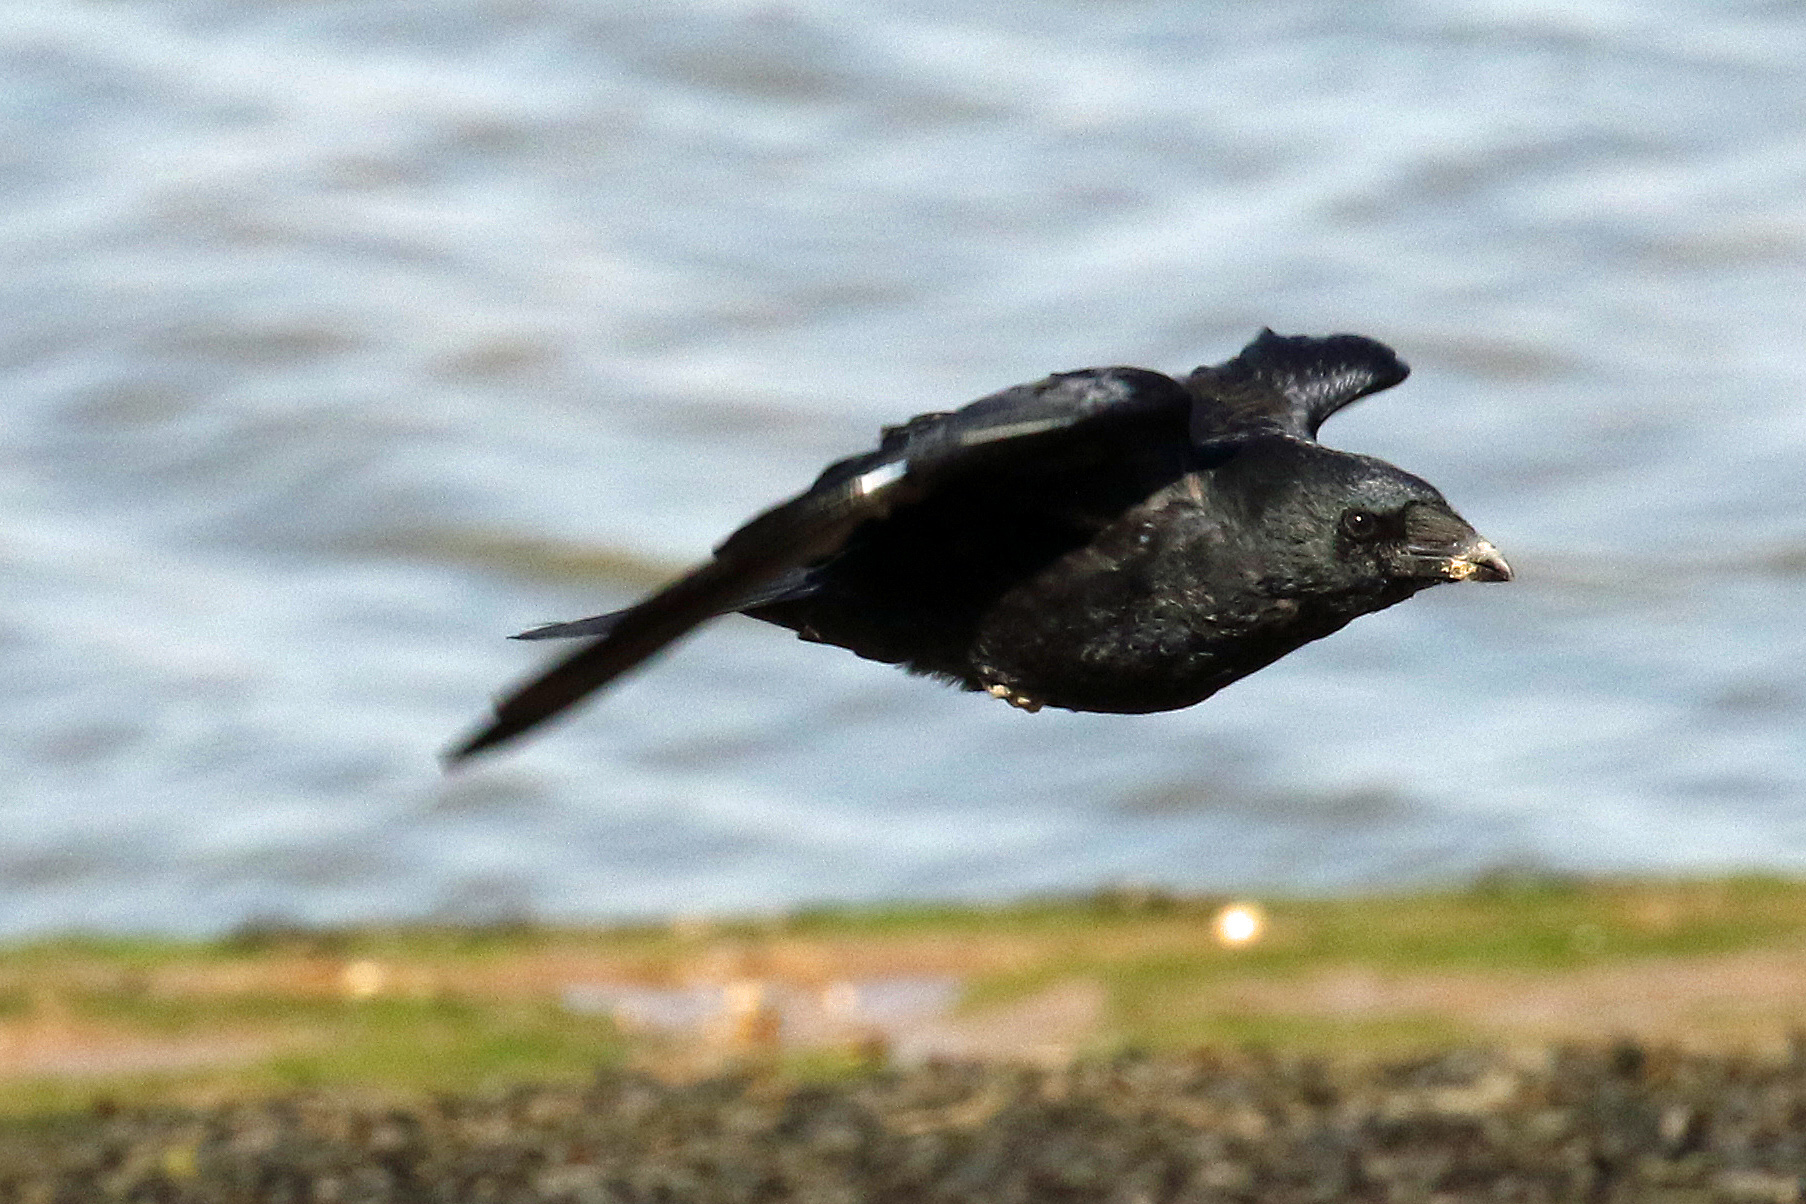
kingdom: Animalia
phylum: Chordata
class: Aves
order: Passeriformes
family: Corvidae
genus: Corvus
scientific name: Corvus corone
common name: Carrion crow
